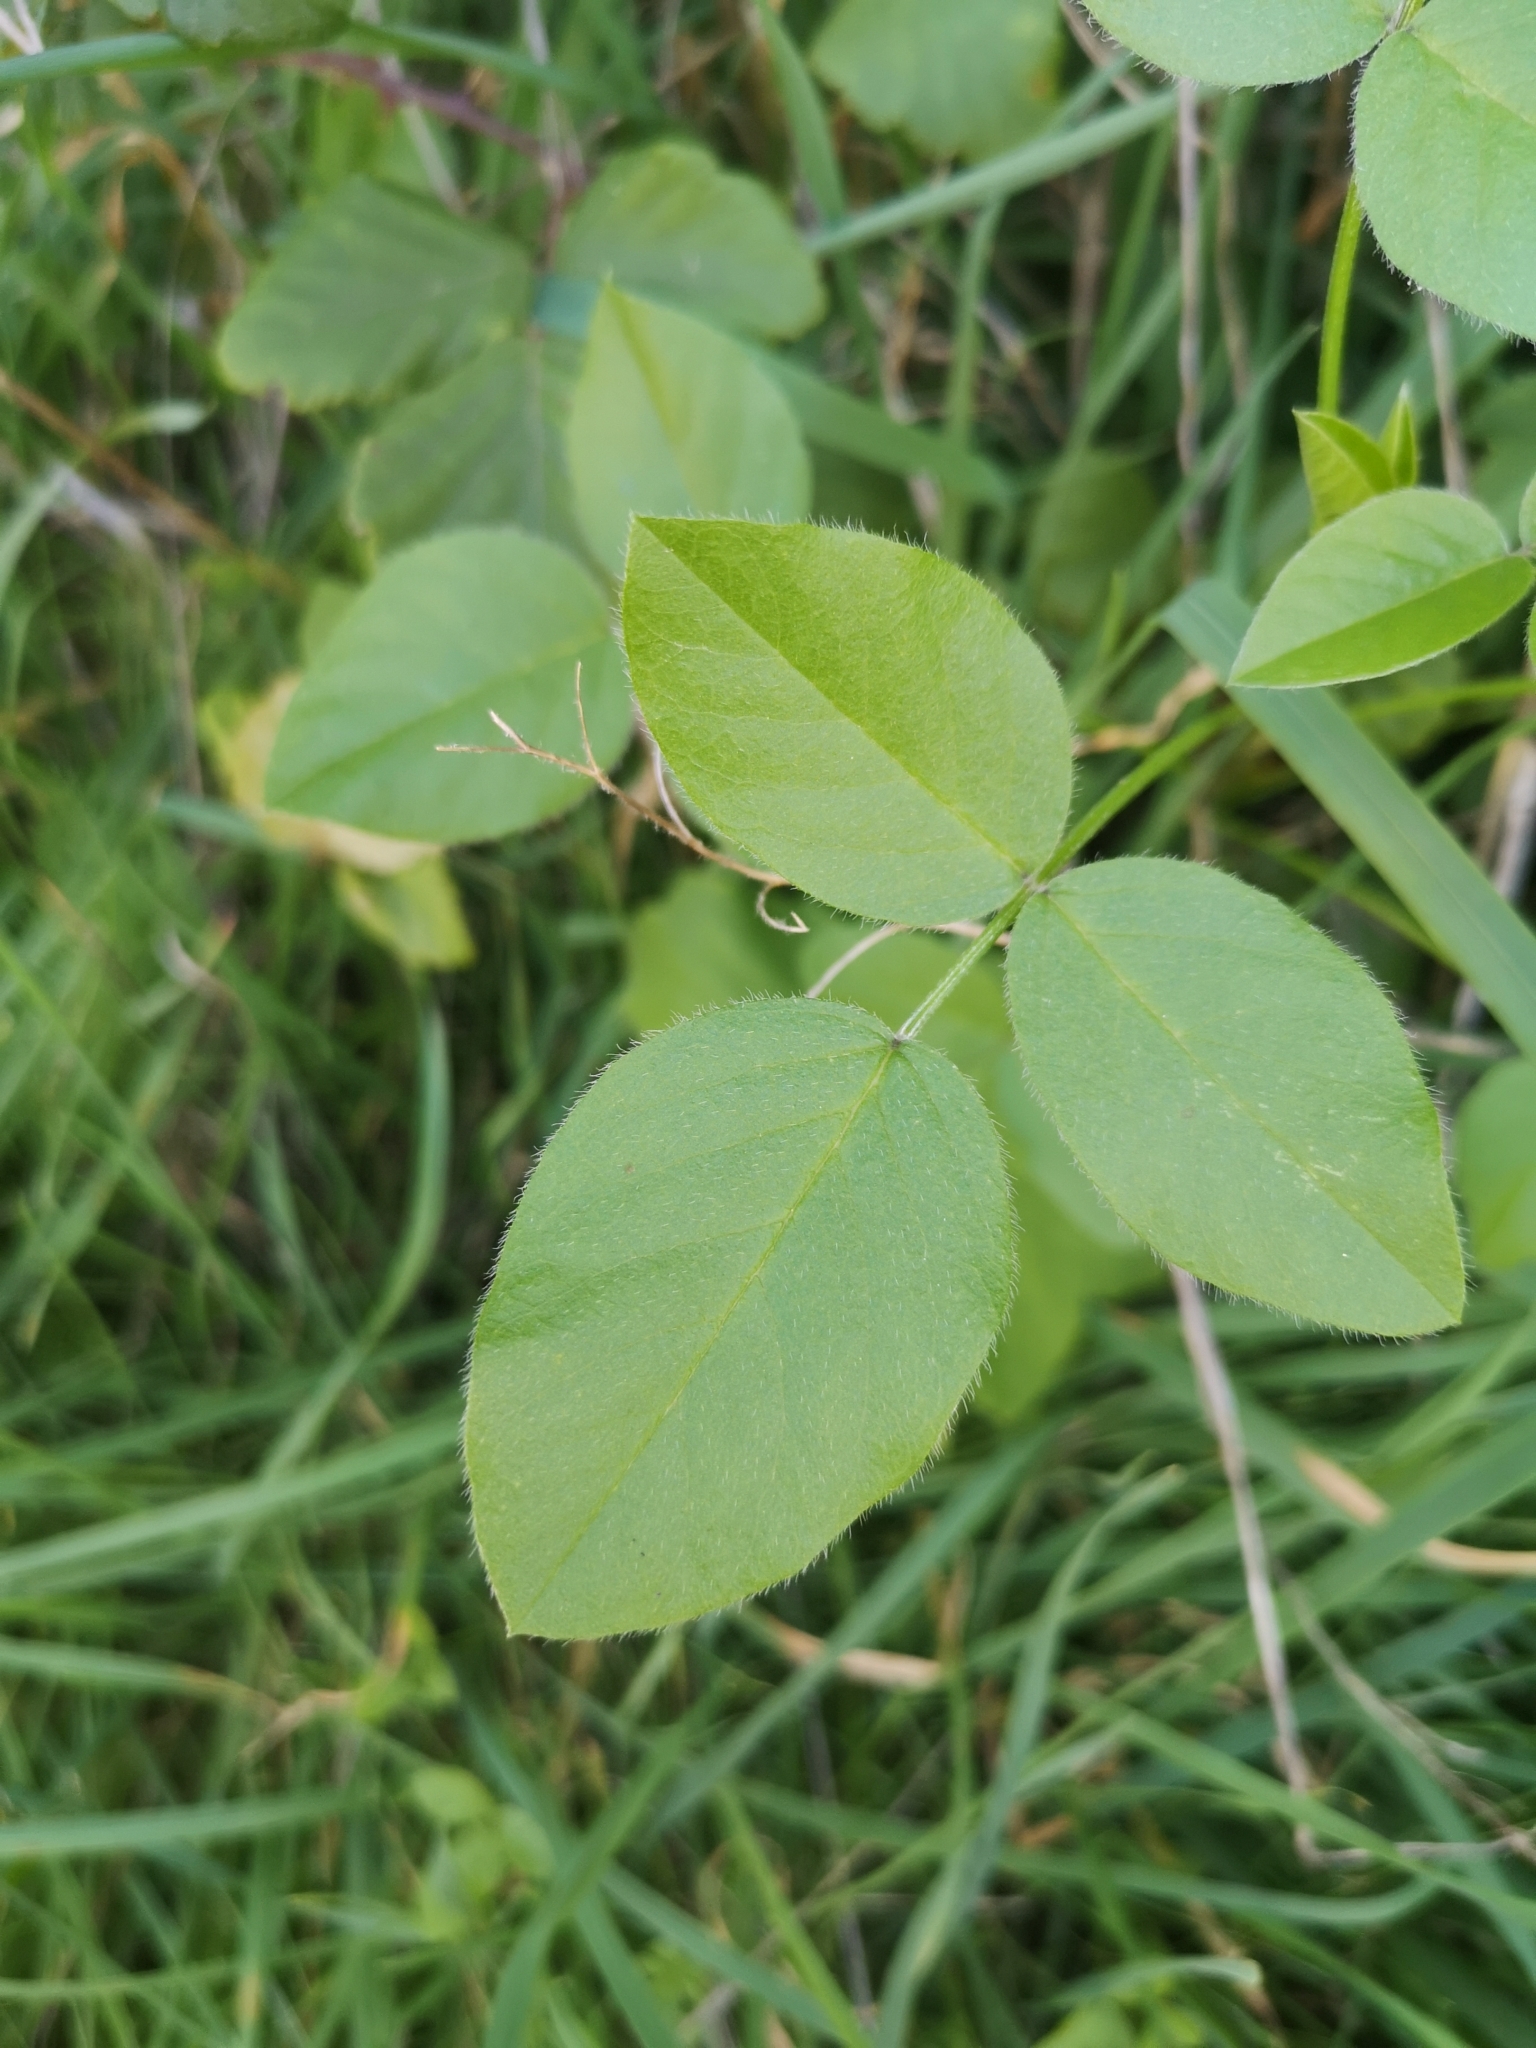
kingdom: Plantae
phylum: Tracheophyta
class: Magnoliopsida
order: Fabales
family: Fabaceae
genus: Bituminaria
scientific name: Bituminaria bituminosa
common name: Arabian pea
